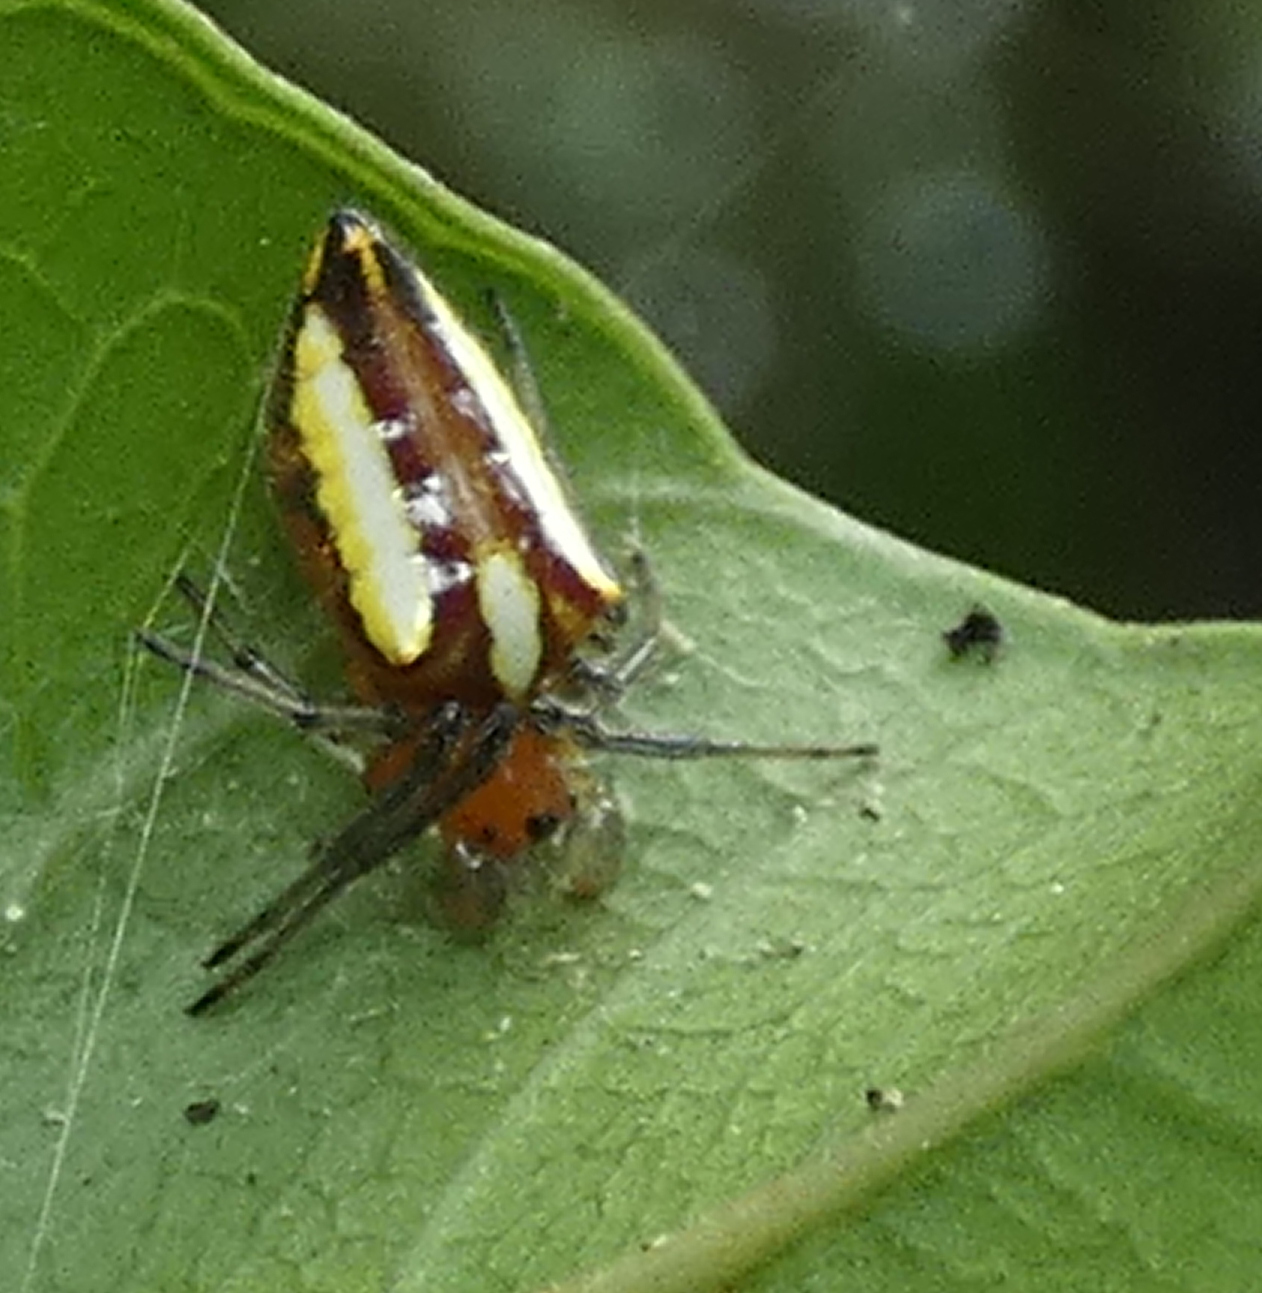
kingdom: Animalia
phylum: Arthropoda
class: Arachnida
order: Araneae
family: Araneidae
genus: Alpaida
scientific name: Alpaida bicornuta
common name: Orb weavers
